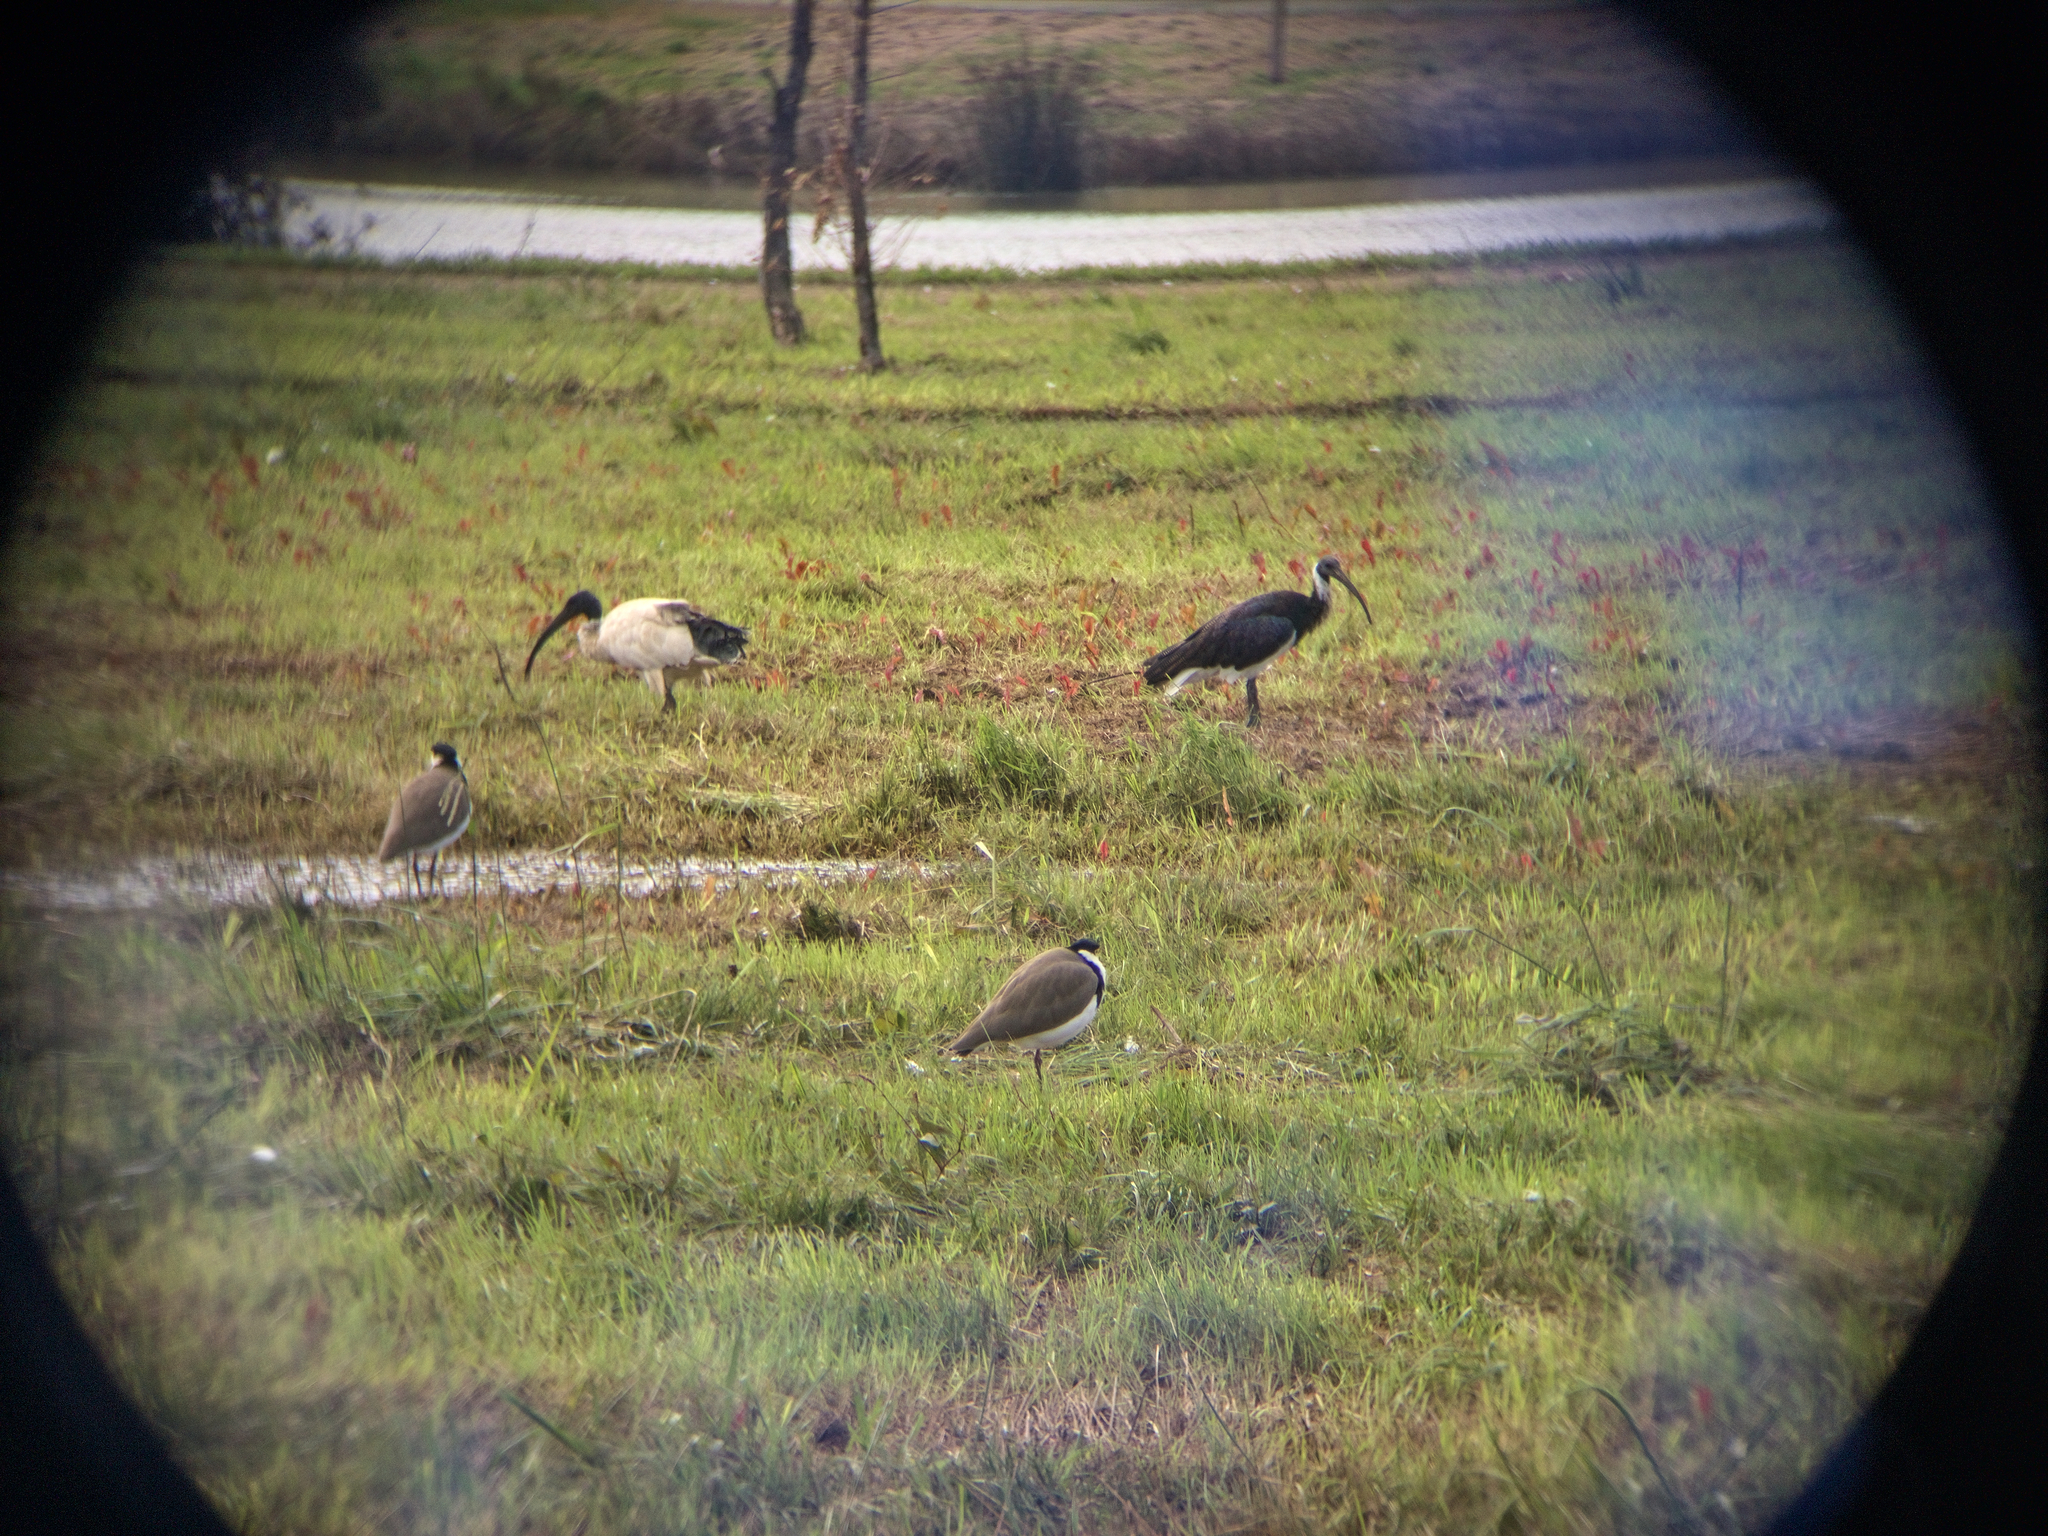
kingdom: Animalia
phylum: Chordata
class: Aves
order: Pelecaniformes
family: Threskiornithidae
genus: Threskiornis
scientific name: Threskiornis spinicollis
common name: Straw-necked ibis
